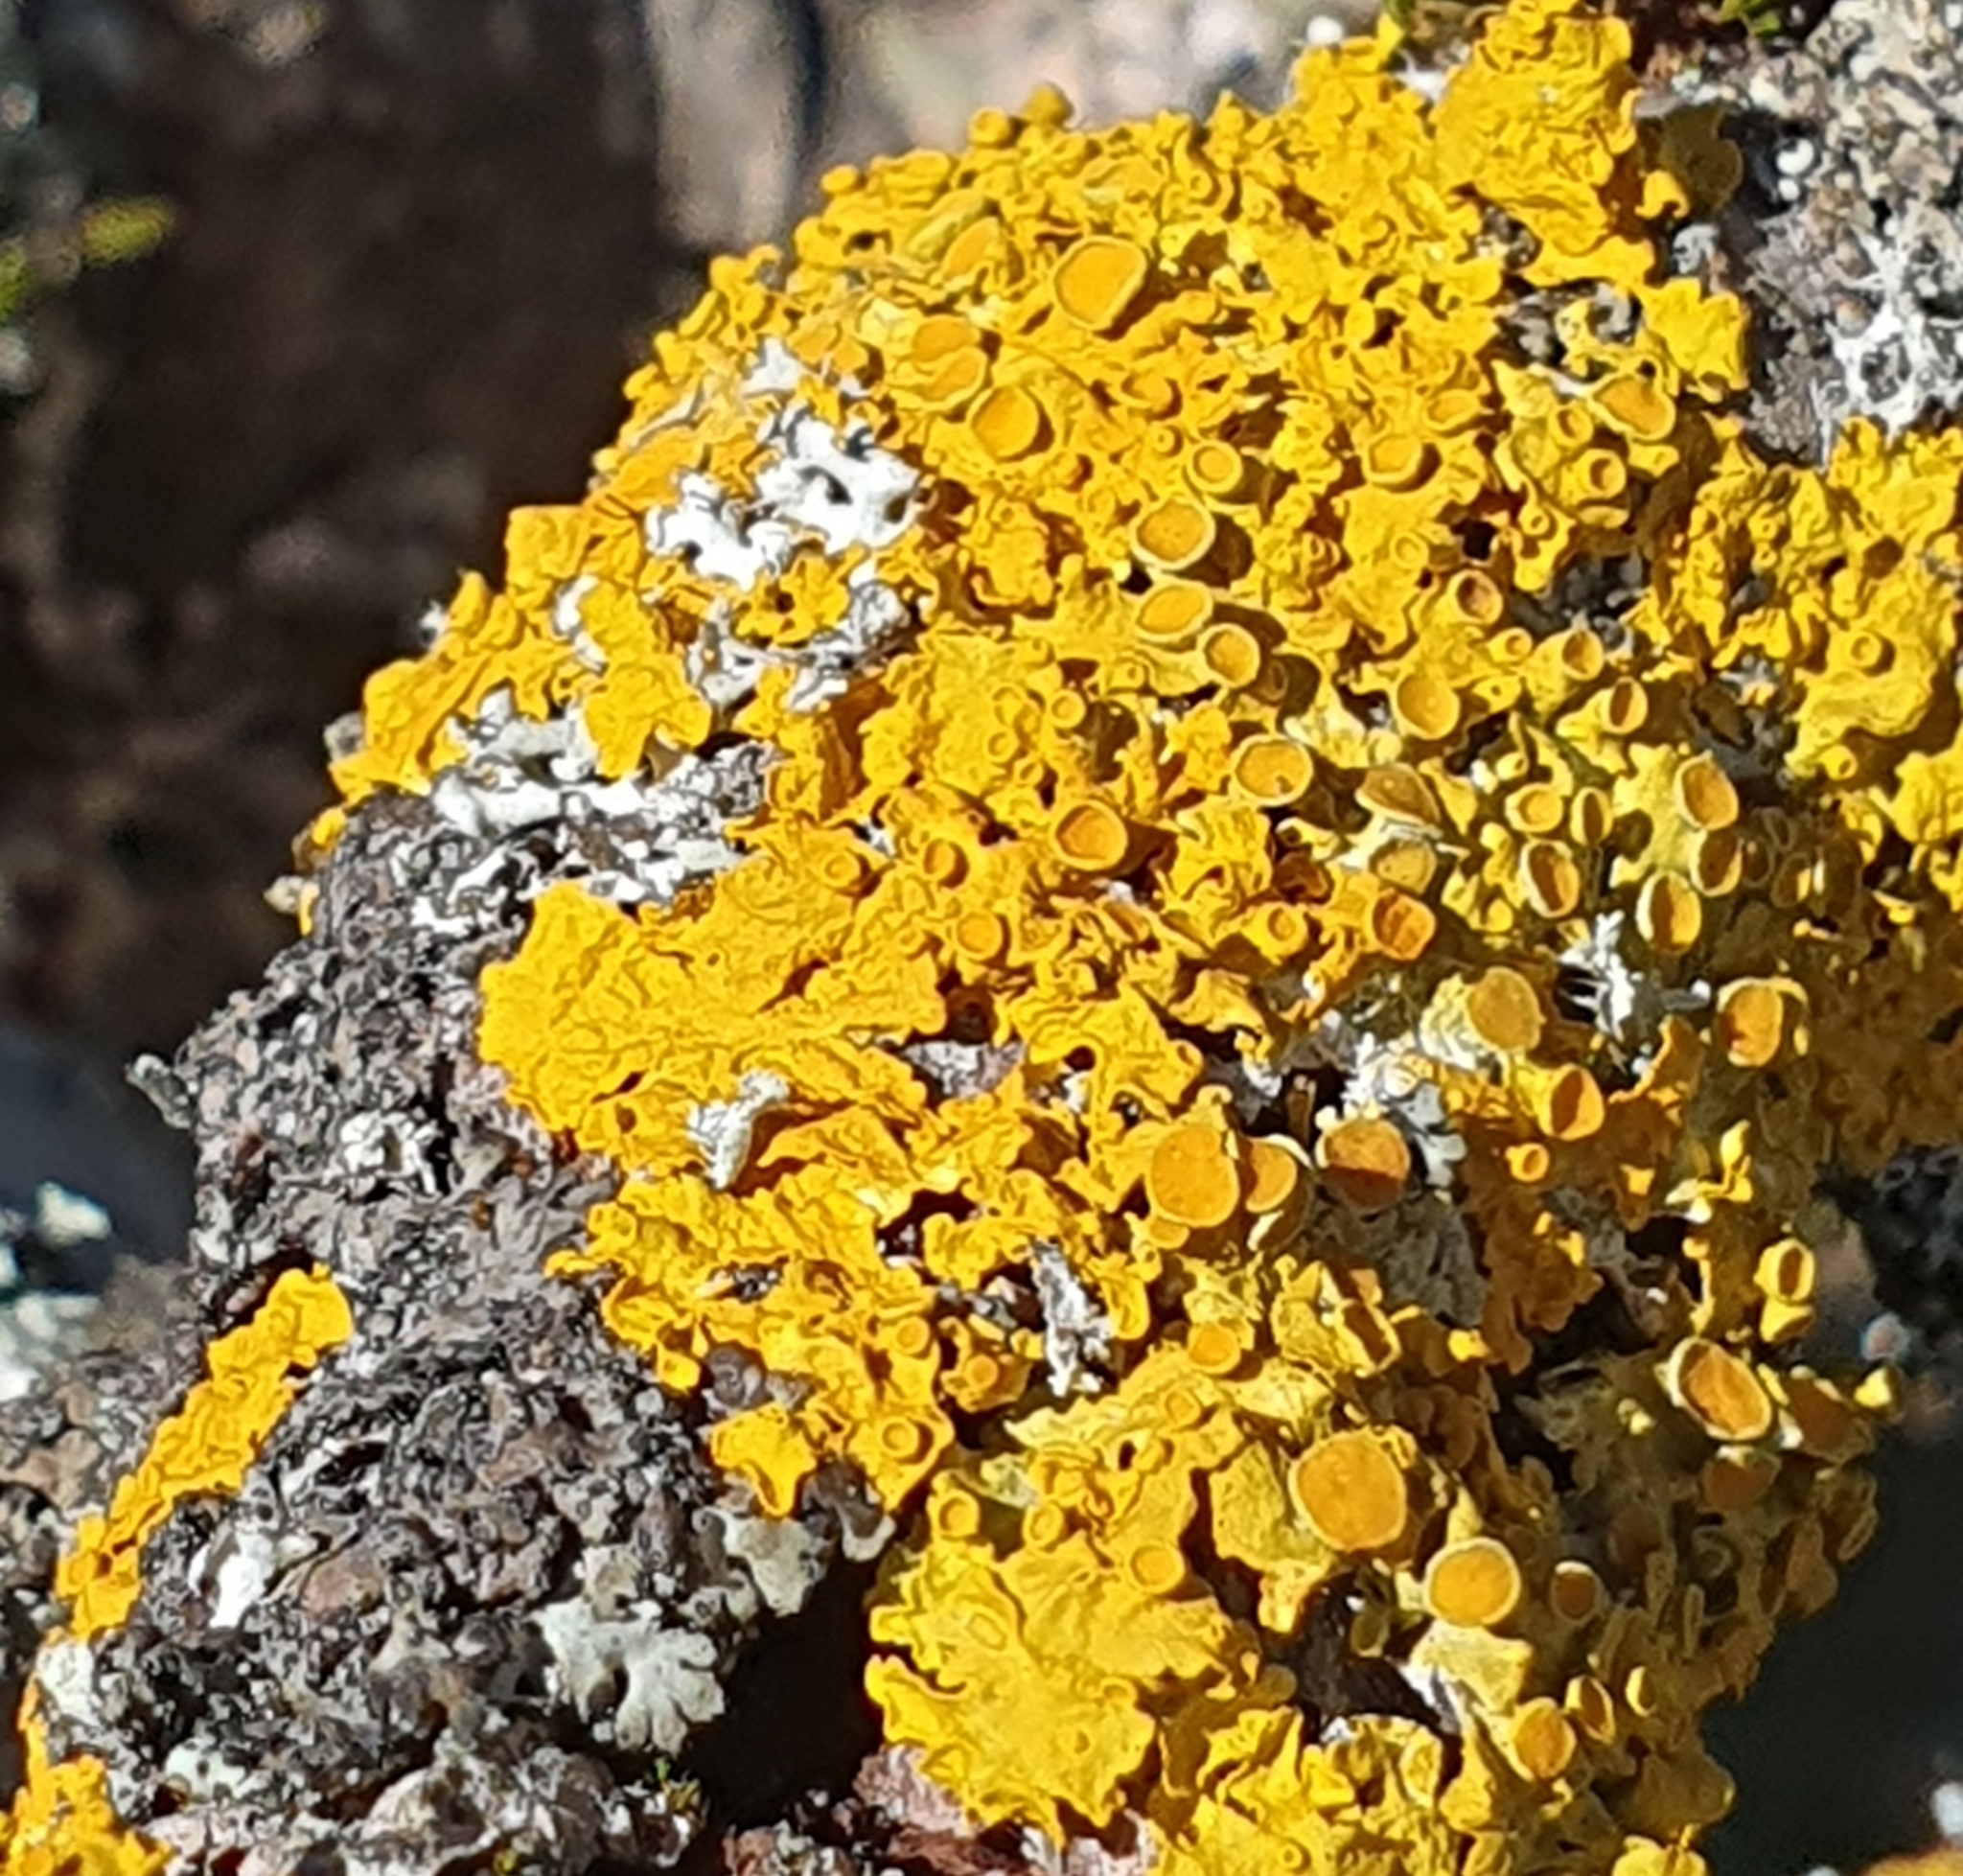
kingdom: Fungi
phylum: Ascomycota
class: Lecanoromycetes
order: Teloschistales
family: Teloschistaceae
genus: Xanthoria
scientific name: Xanthoria parietina
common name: Common orange lichen
